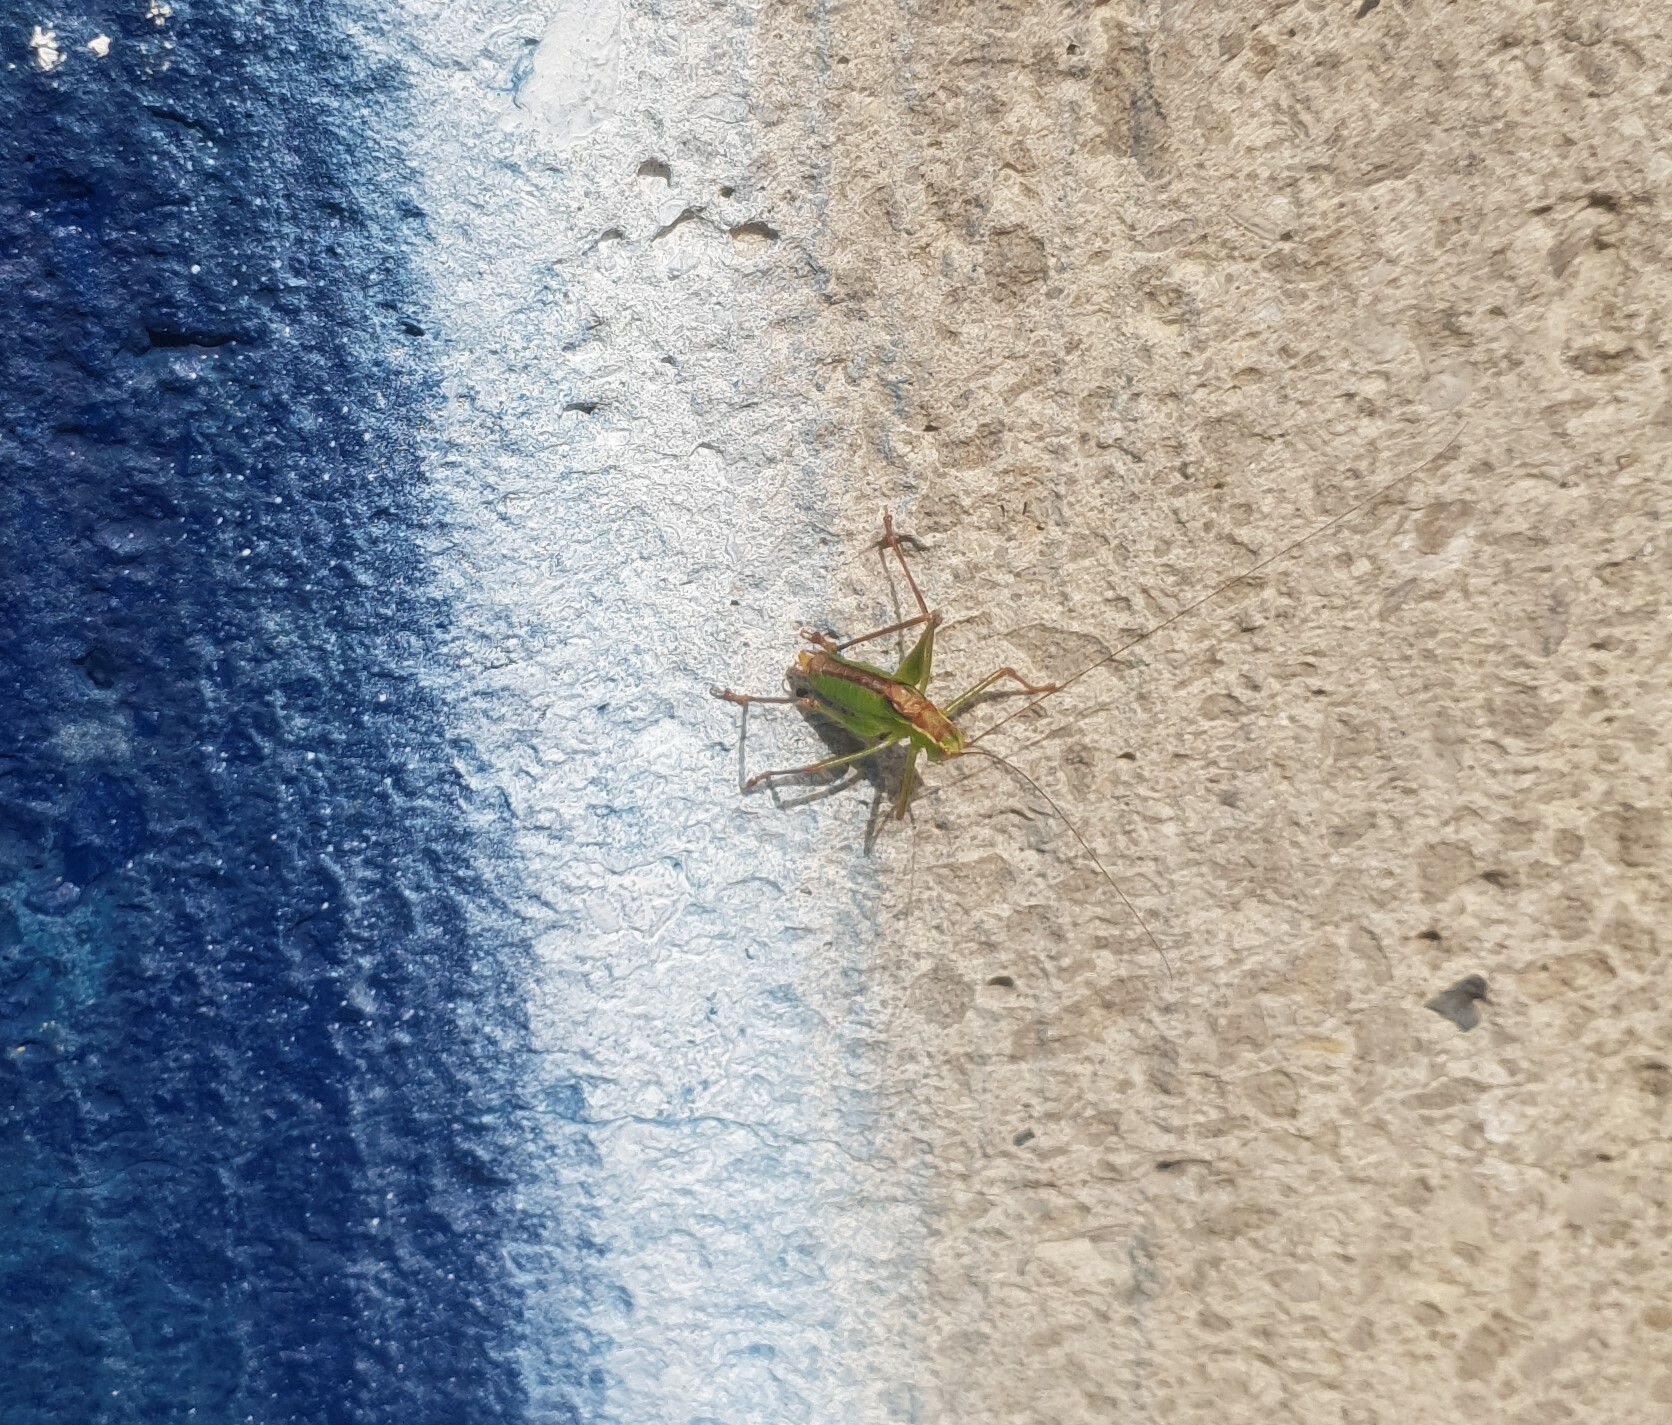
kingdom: Animalia
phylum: Arthropoda
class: Insecta
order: Orthoptera
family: Tettigoniidae
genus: Leptophyes
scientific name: Leptophyes punctatissima
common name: Speckled bush-cricket
